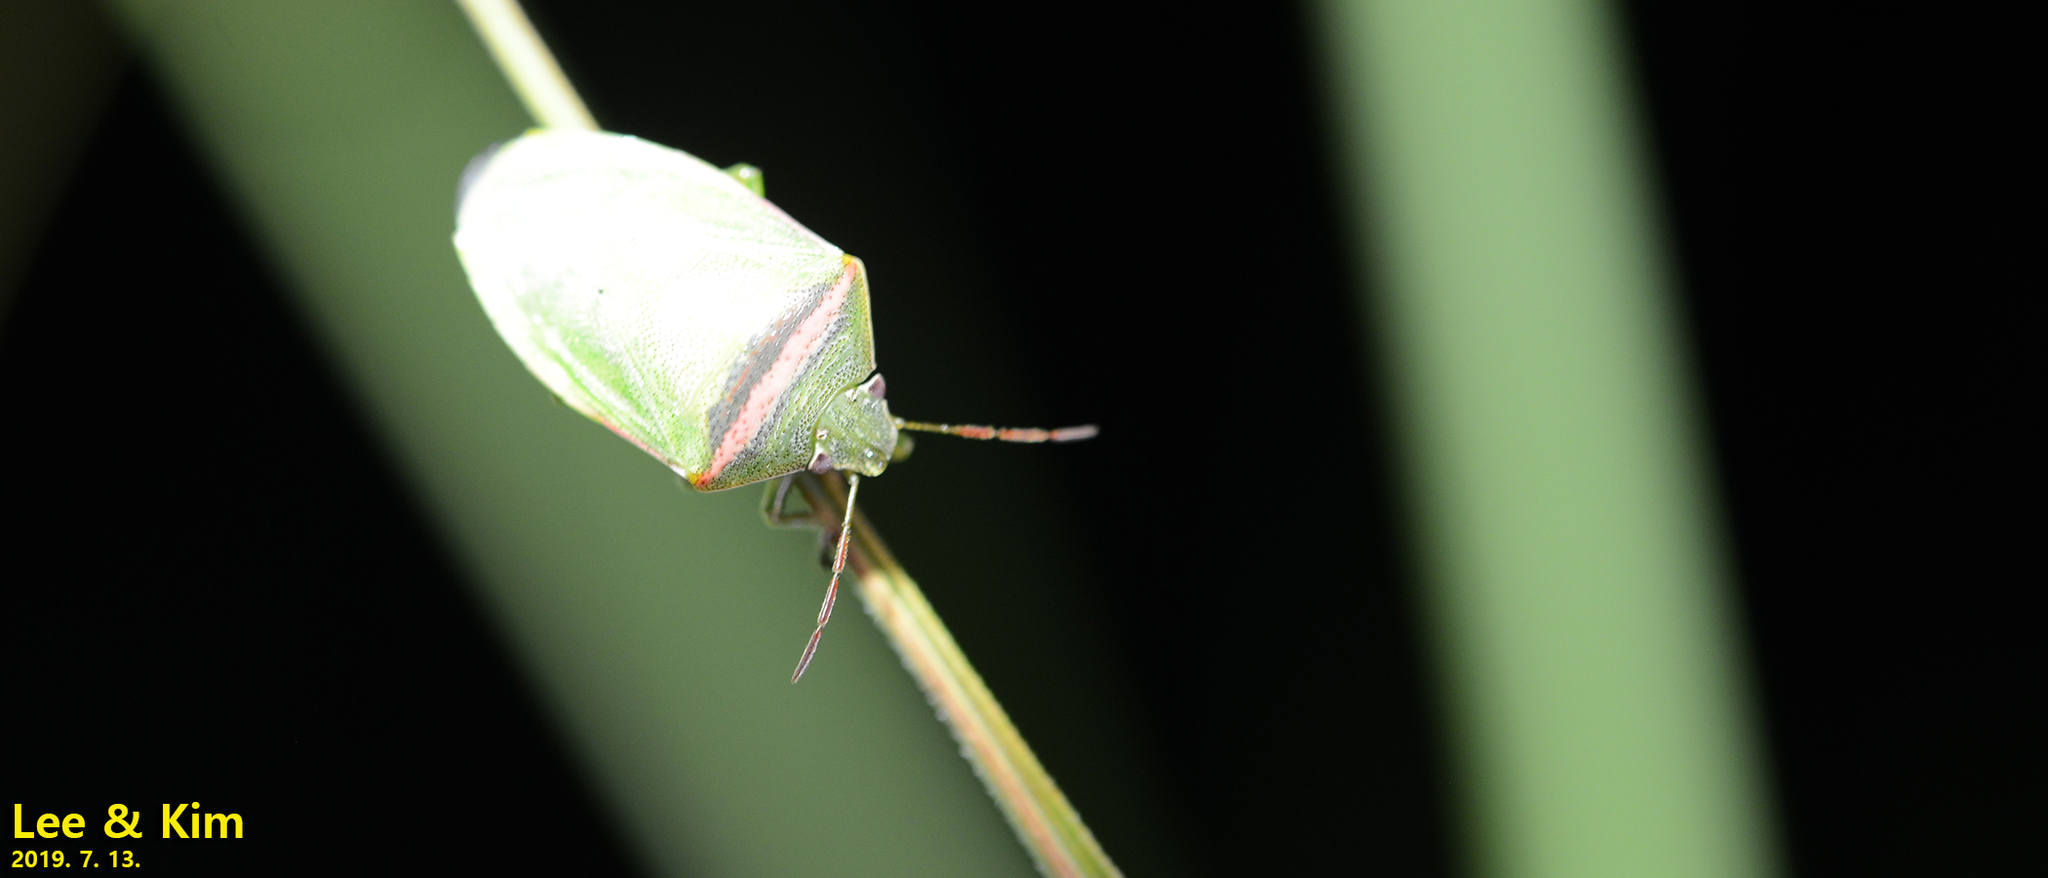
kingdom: Animalia
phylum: Arthropoda
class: Insecta
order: Hemiptera
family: Pentatomidae
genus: Piezodorus
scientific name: Piezodorus hybneri
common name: Stink bug
